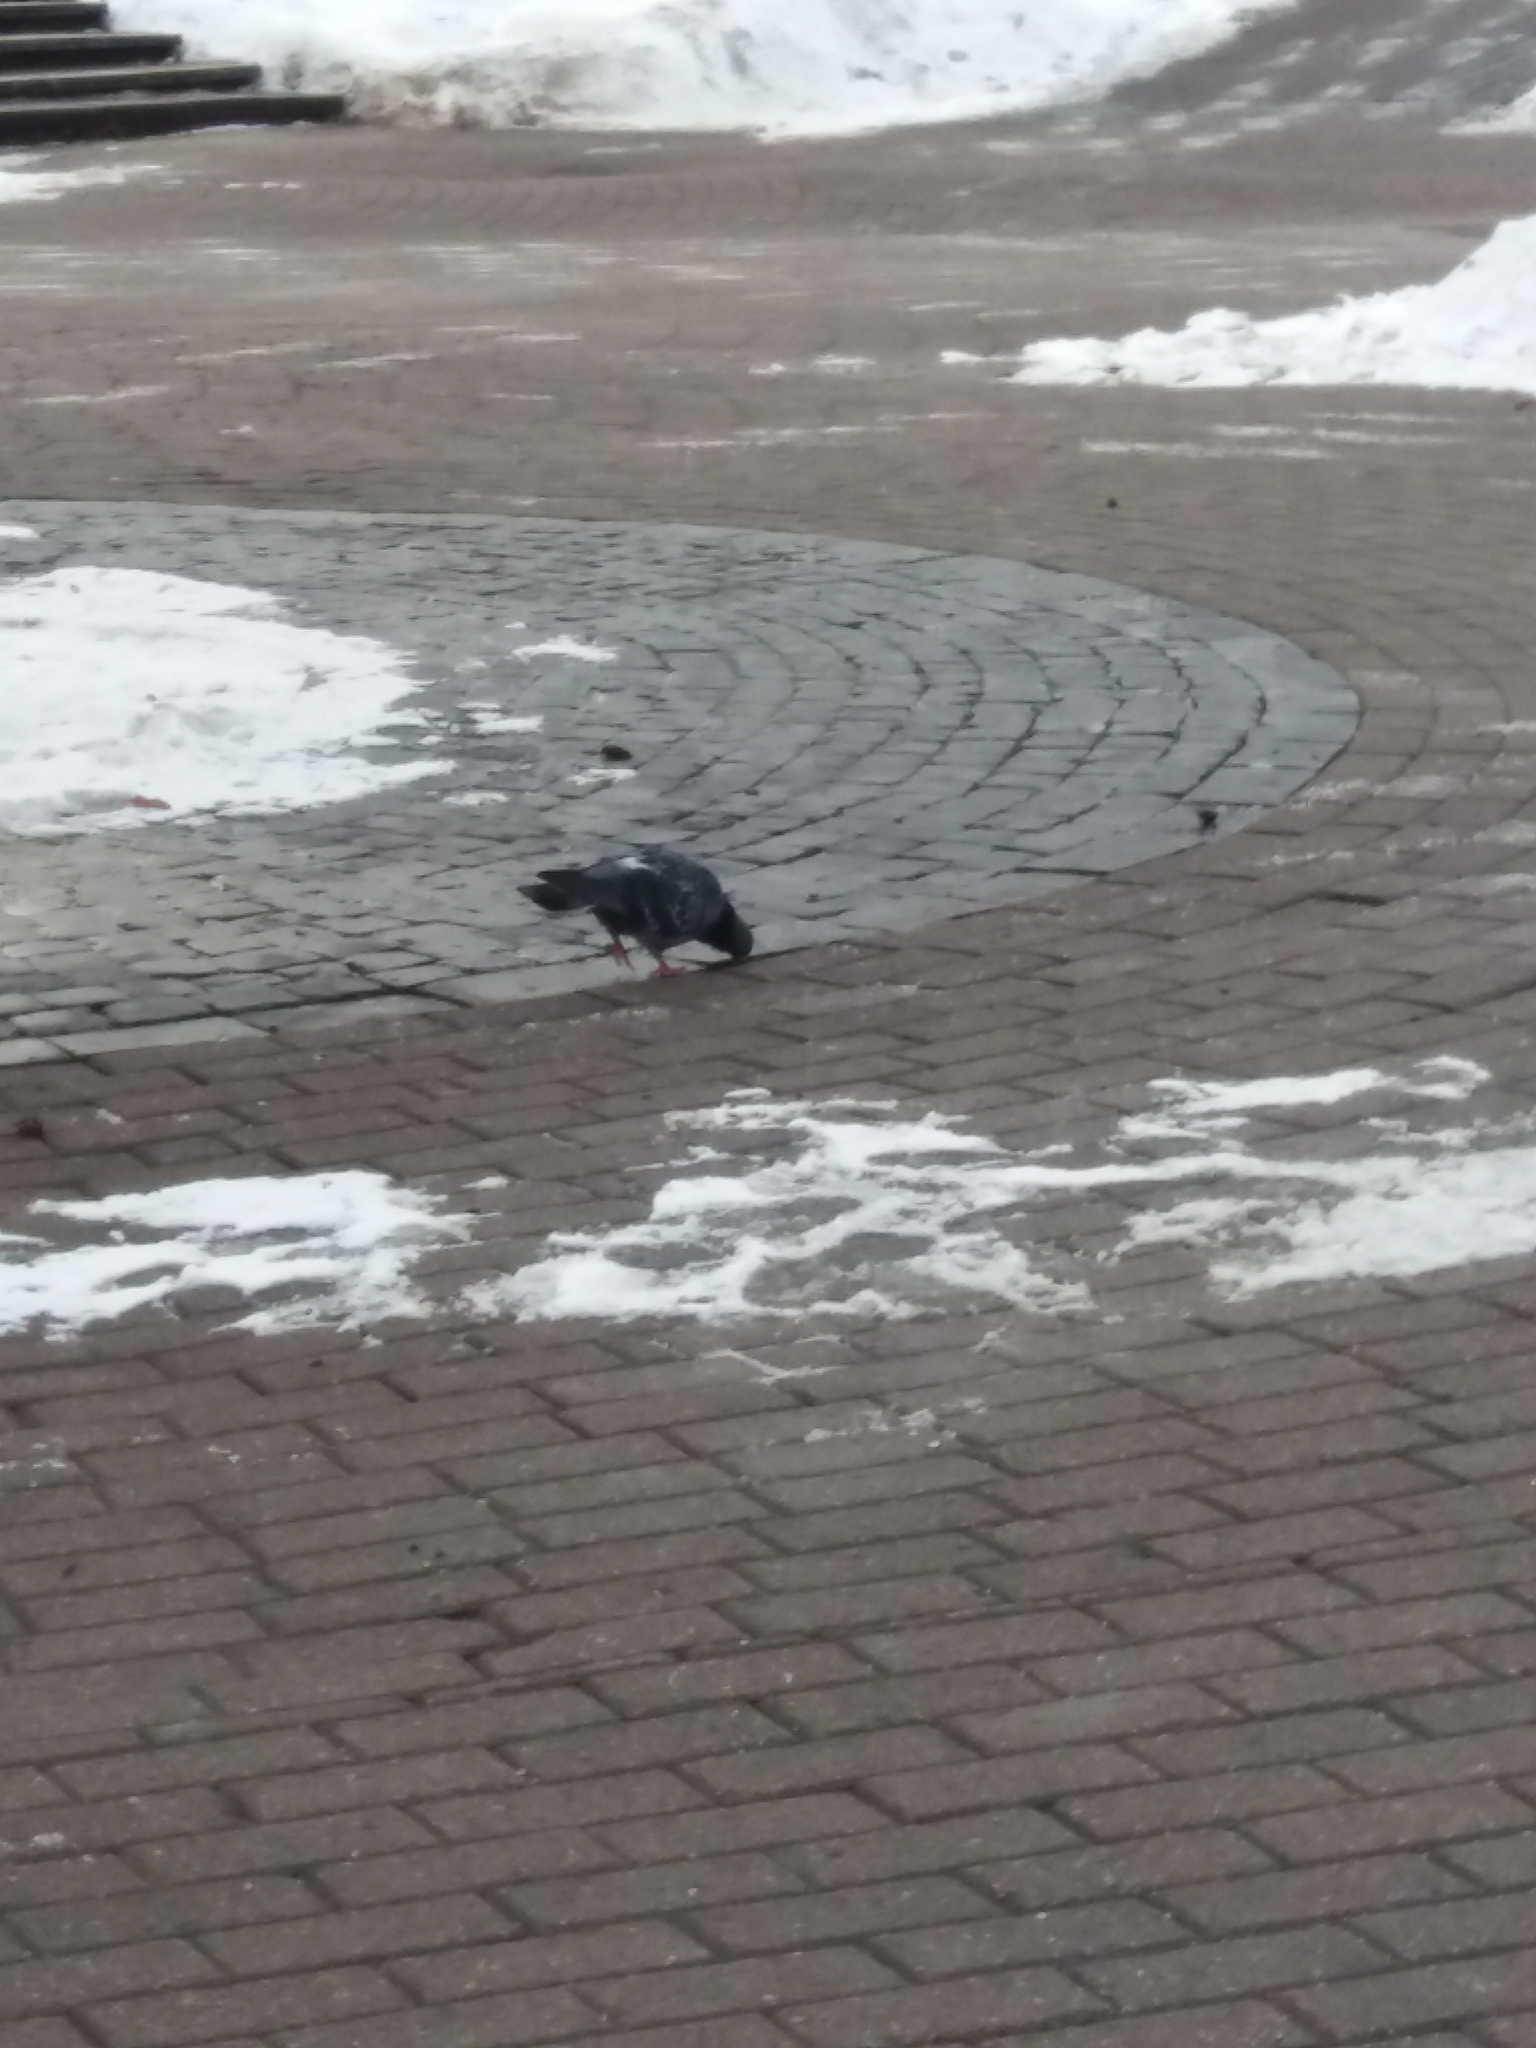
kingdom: Animalia
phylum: Chordata
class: Aves
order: Columbiformes
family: Columbidae
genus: Columba
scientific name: Columba livia
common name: Rock pigeon
